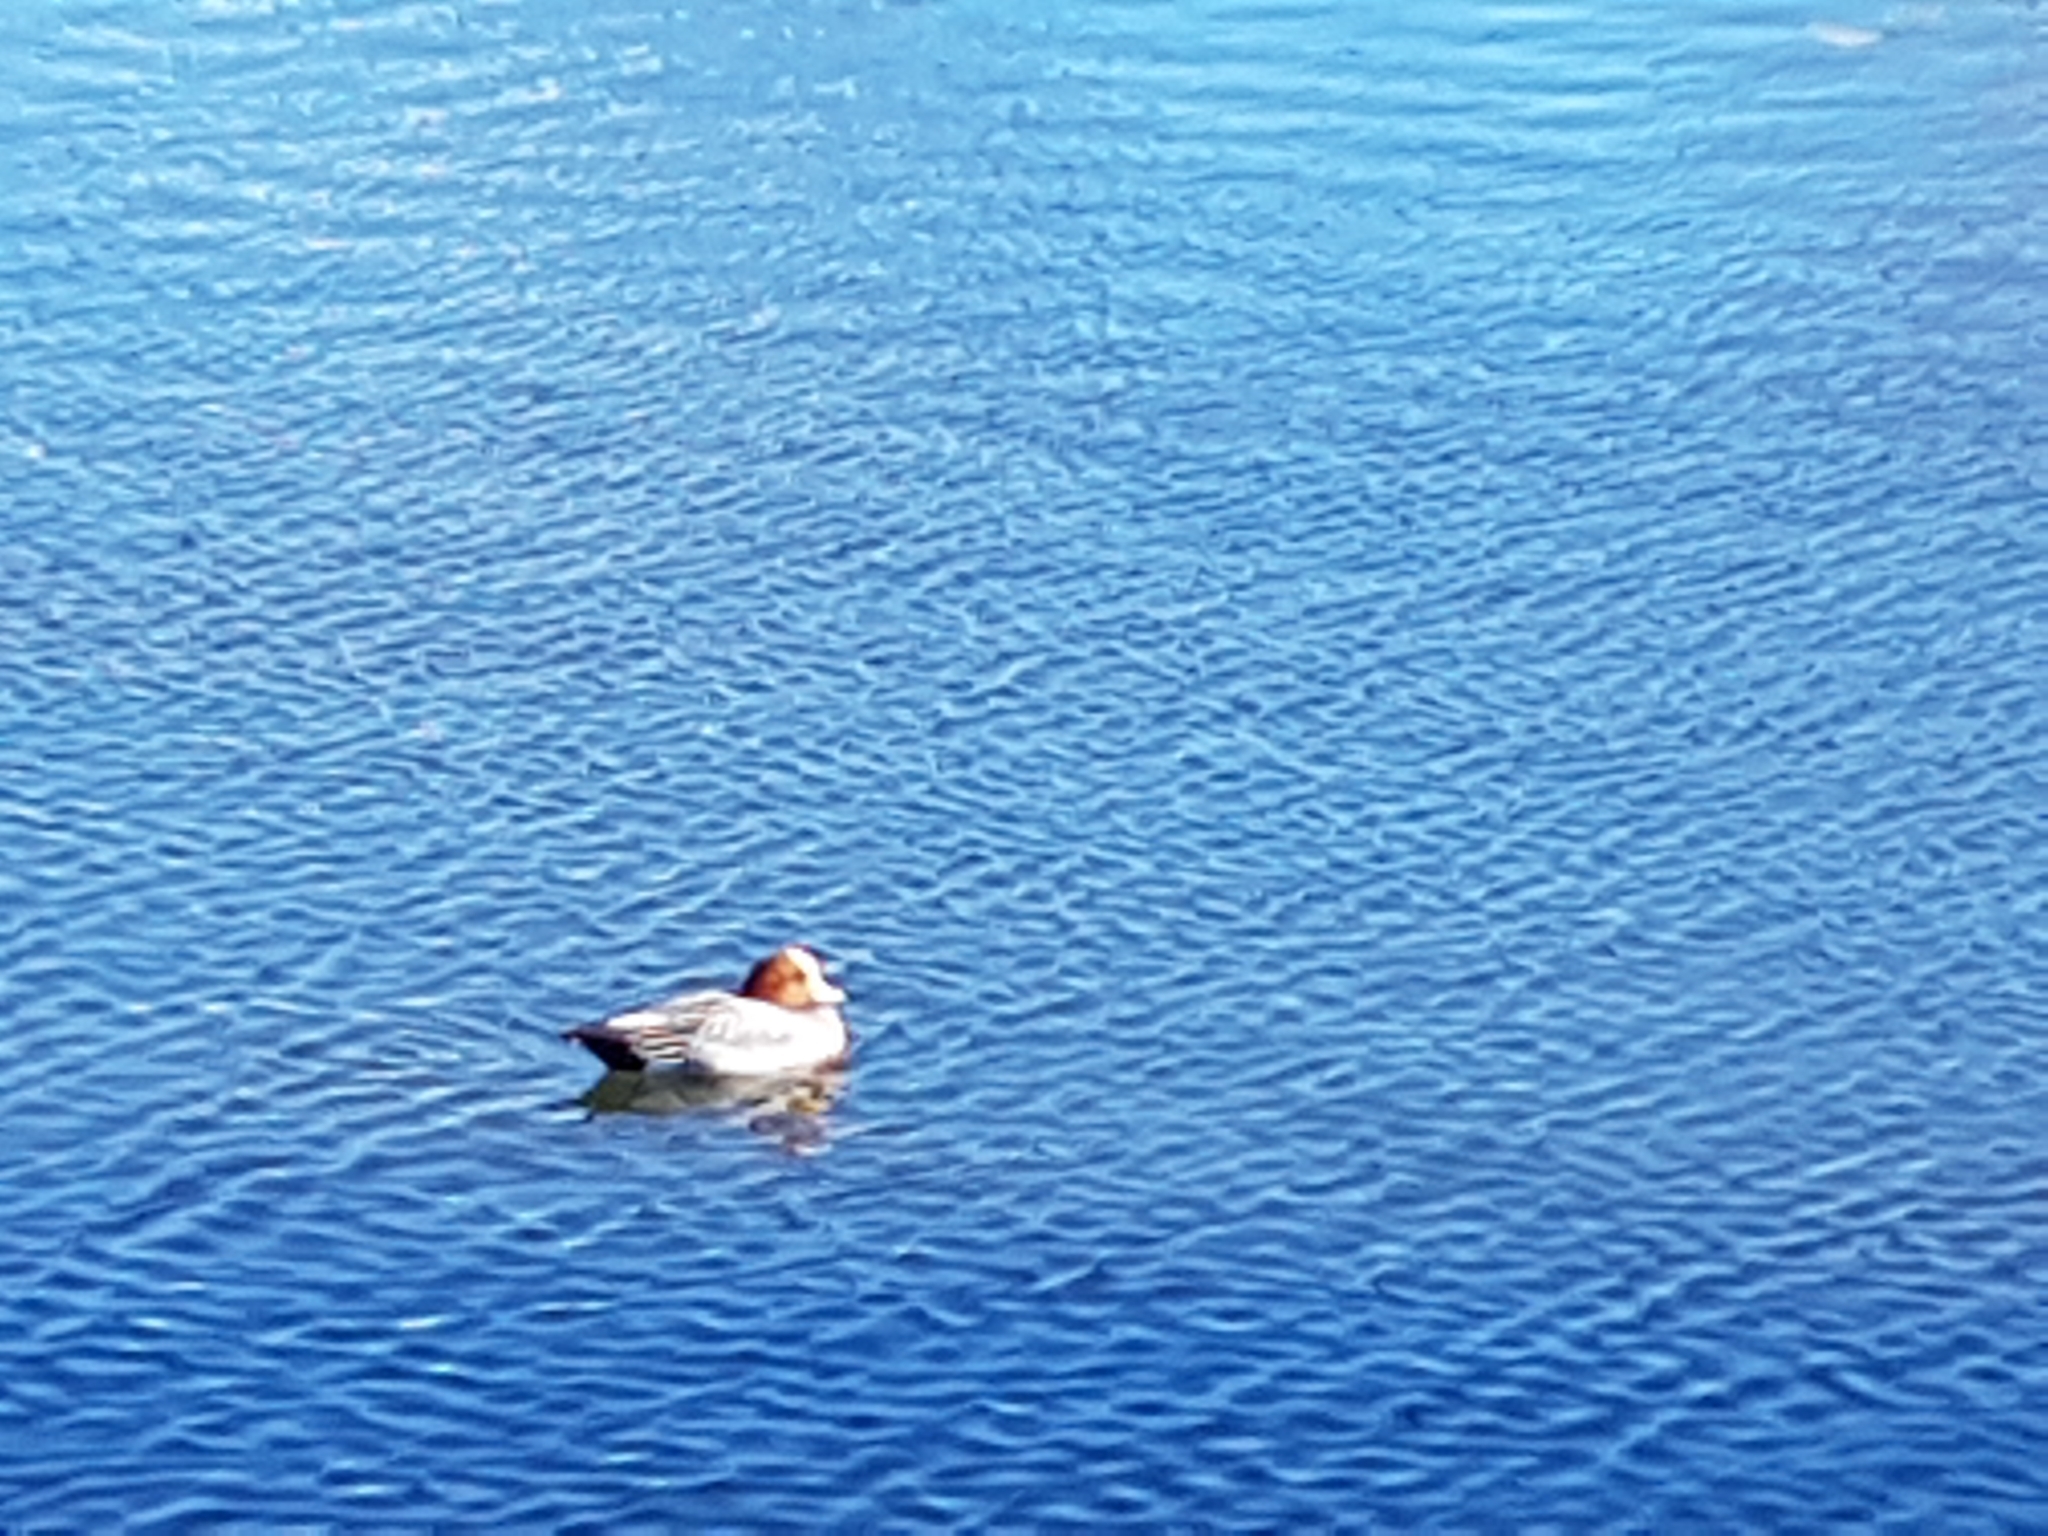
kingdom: Animalia
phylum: Chordata
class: Aves
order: Anseriformes
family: Anatidae
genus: Mareca
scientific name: Mareca penelope
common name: Eurasian wigeon
